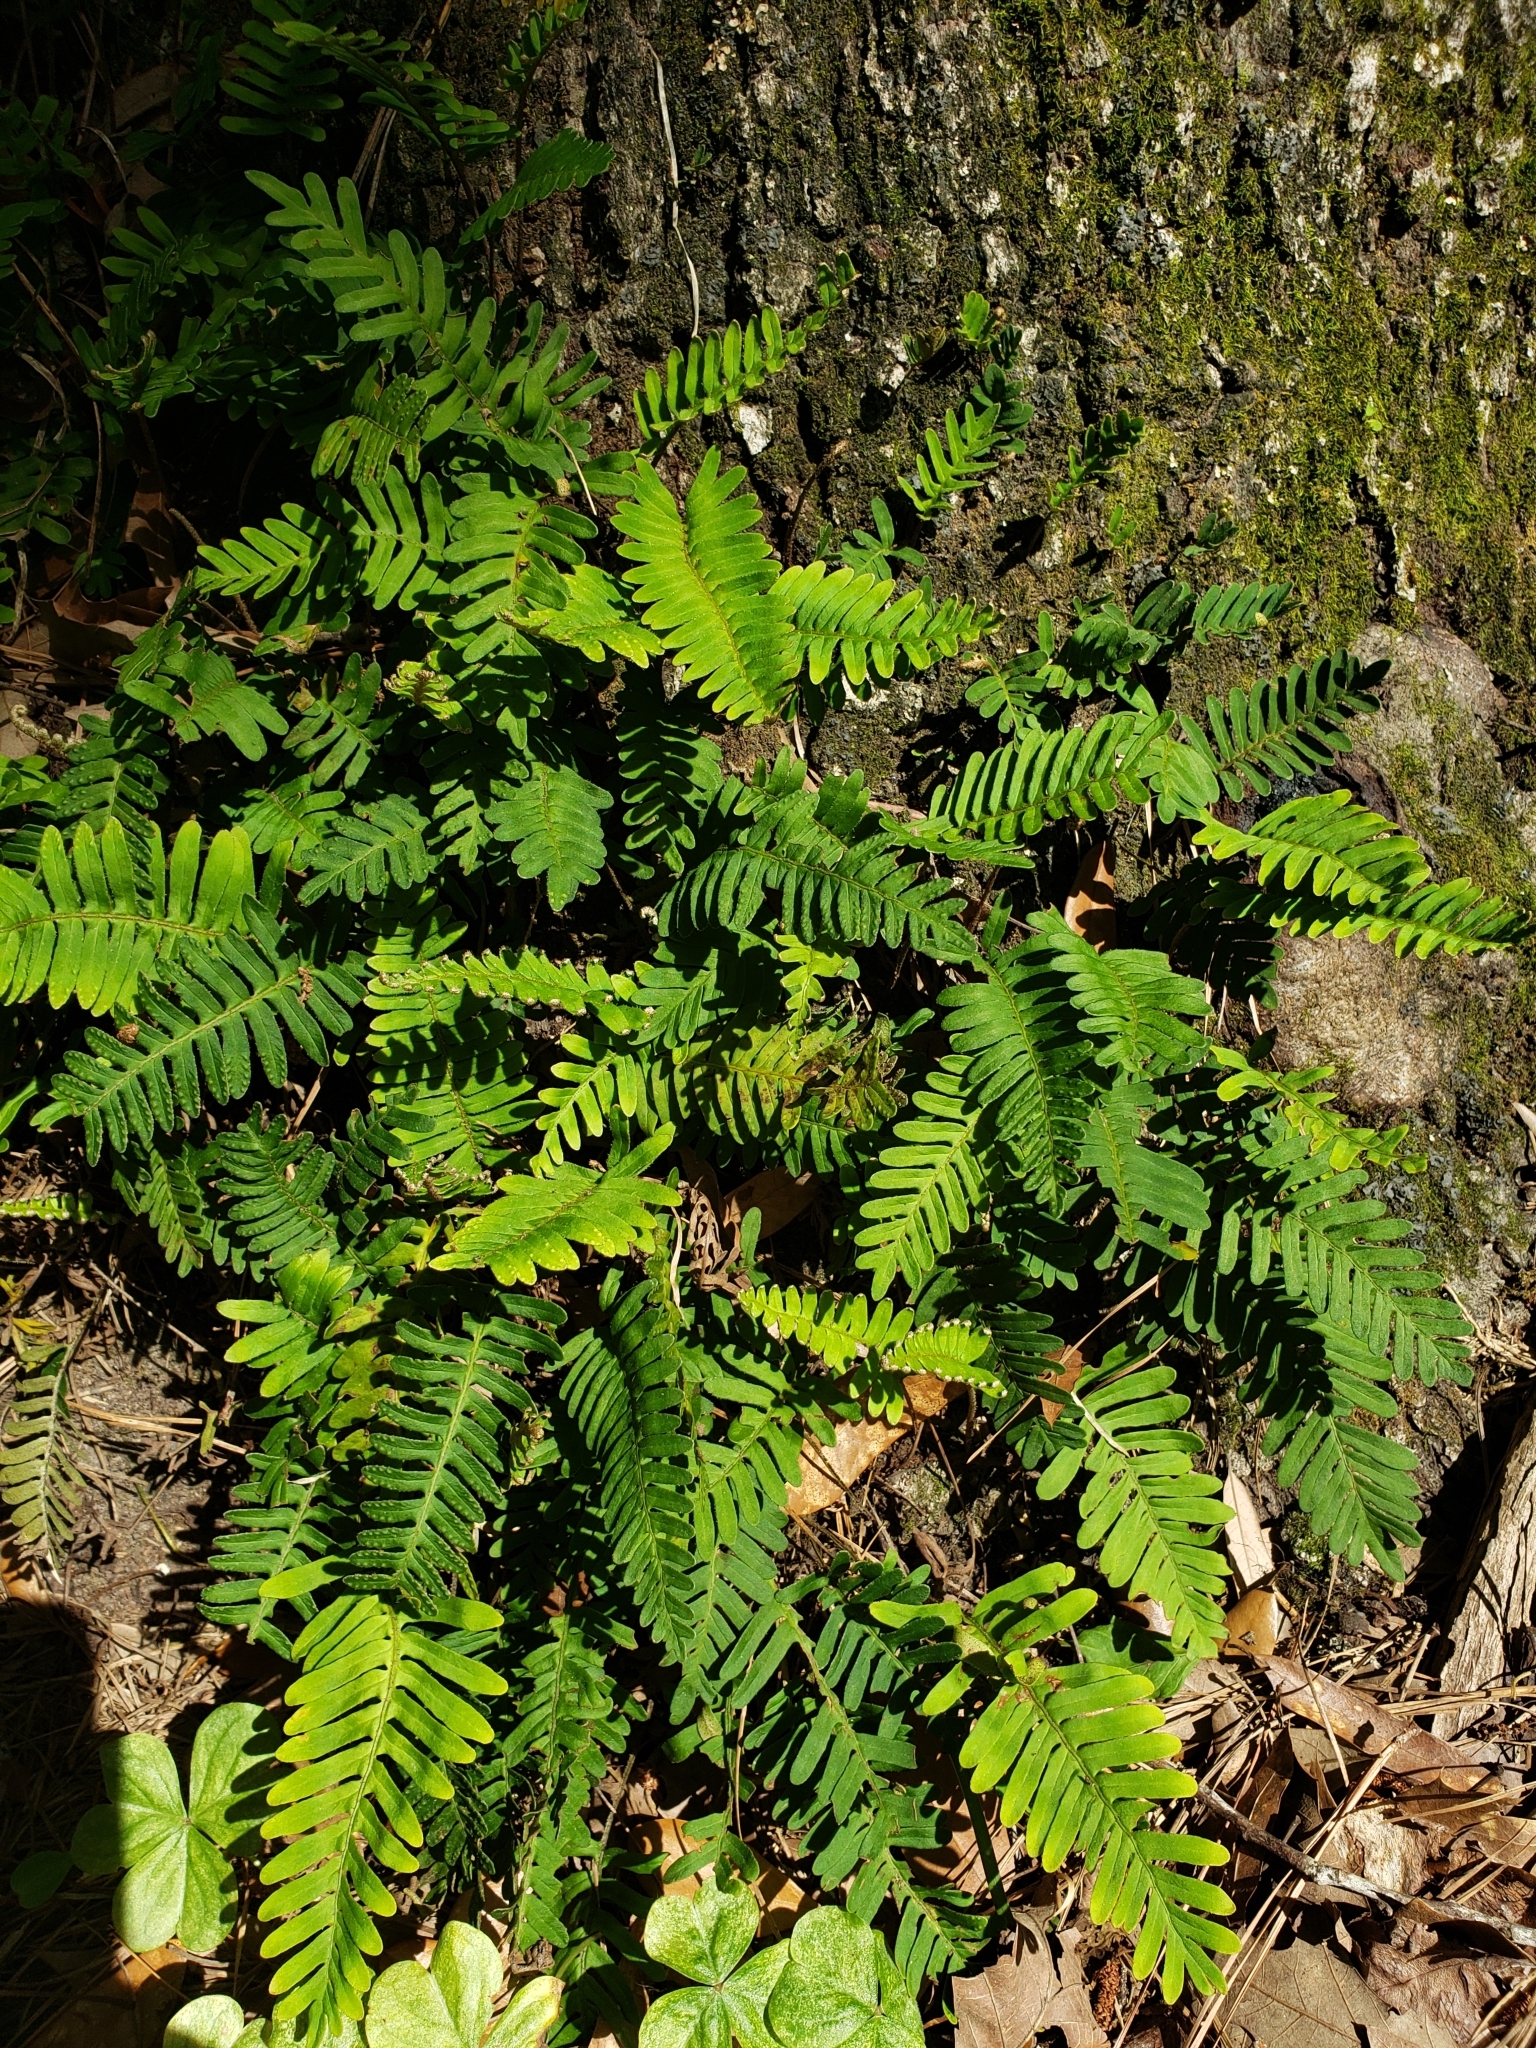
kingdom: Plantae
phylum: Tracheophyta
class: Polypodiopsida
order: Polypodiales
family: Polypodiaceae
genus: Pleopeltis
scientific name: Pleopeltis michauxiana
